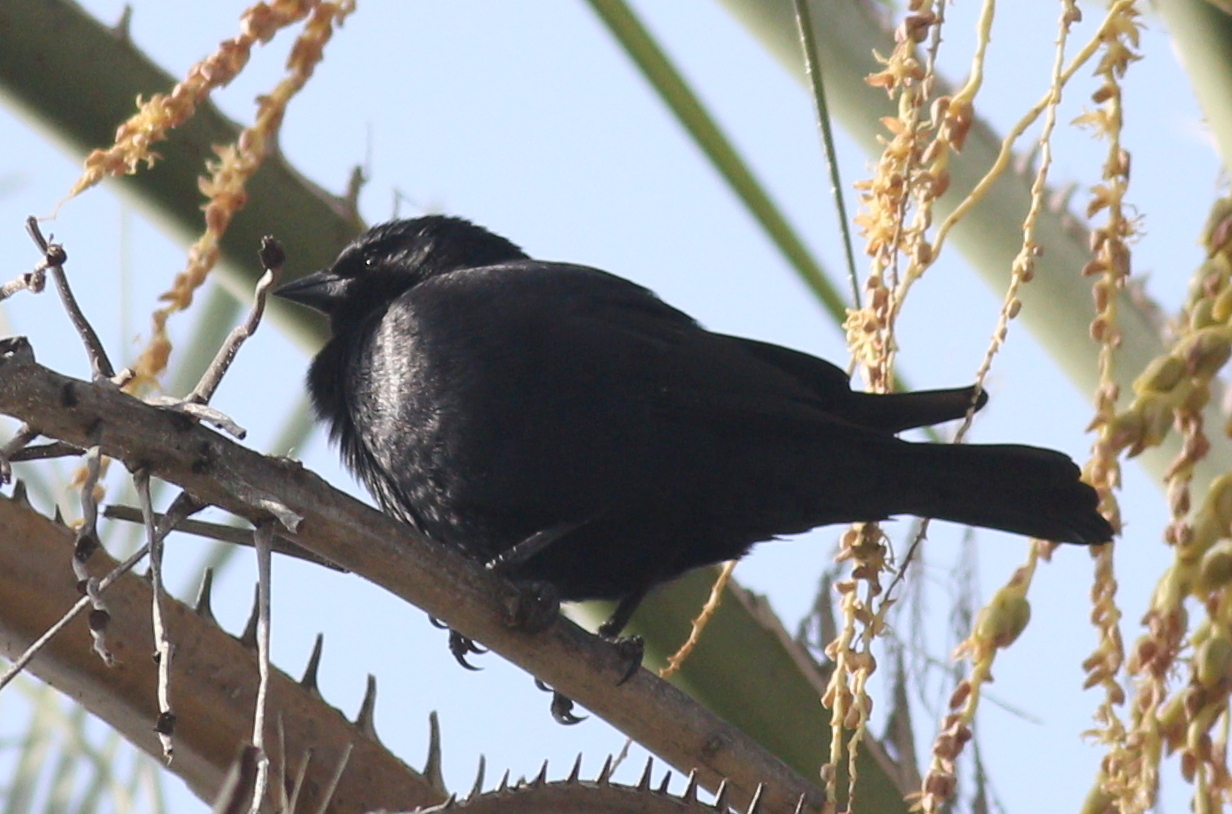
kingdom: Animalia
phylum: Chordata
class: Aves
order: Passeriformes
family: Icteridae
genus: Molothrus
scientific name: Molothrus rufoaxillaris
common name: Screaming cowbird
